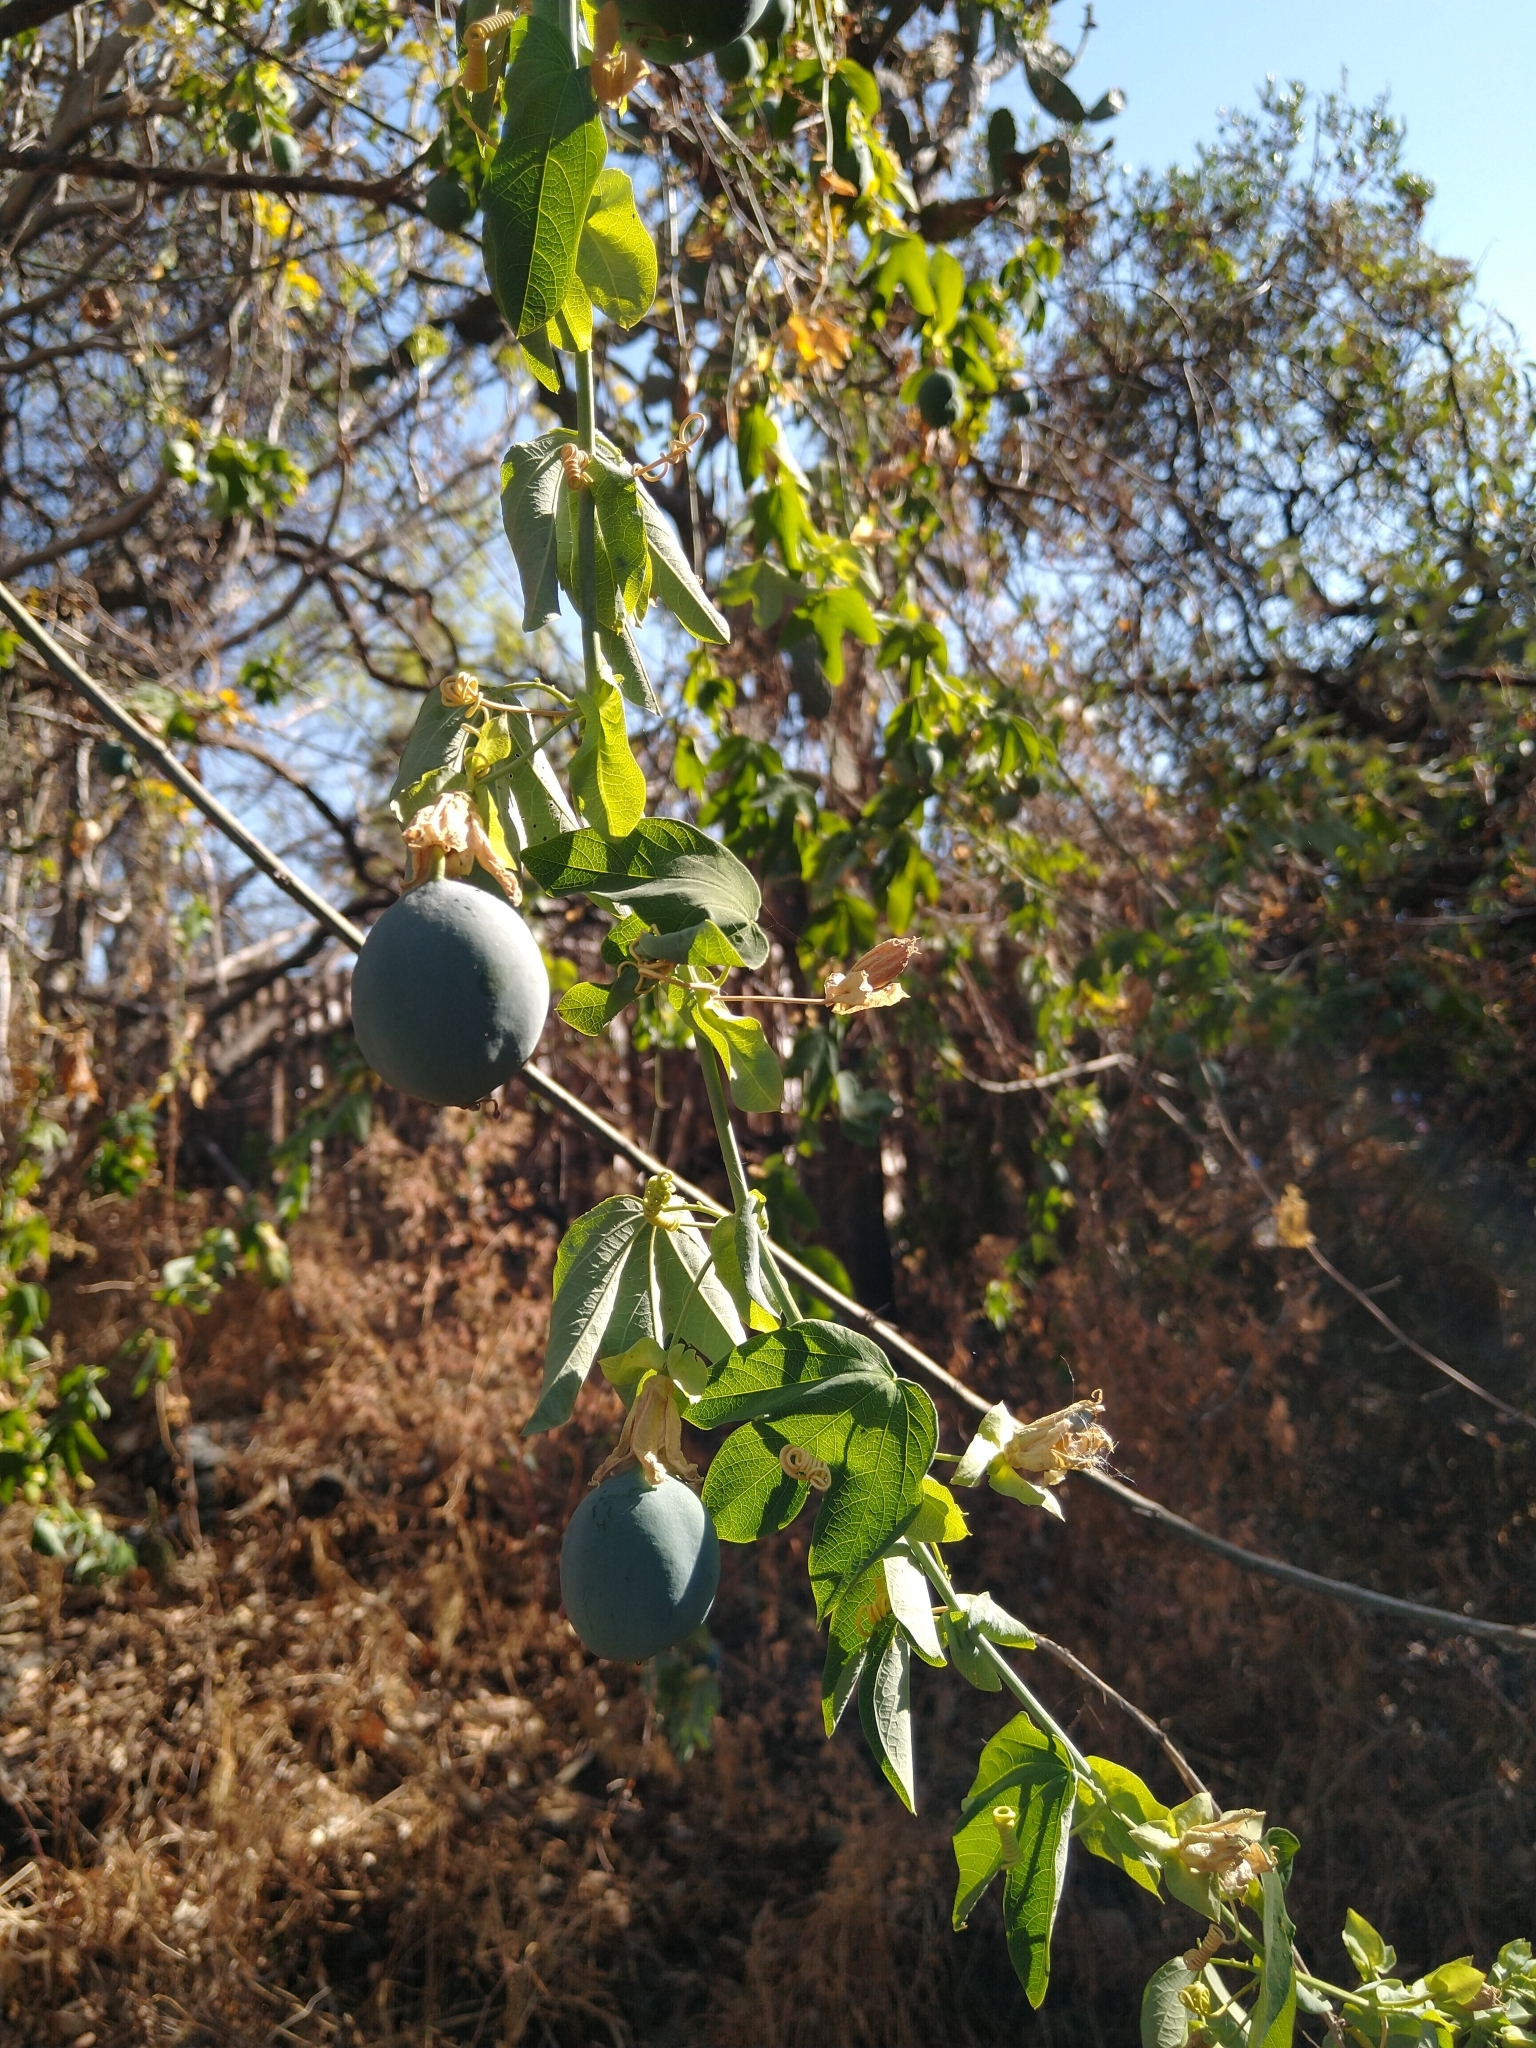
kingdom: Plantae
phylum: Tracheophyta
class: Magnoliopsida
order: Malpighiales
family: Passifloraceae
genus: Passiflora
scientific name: Passiflora subpeltata
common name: White passionflower
